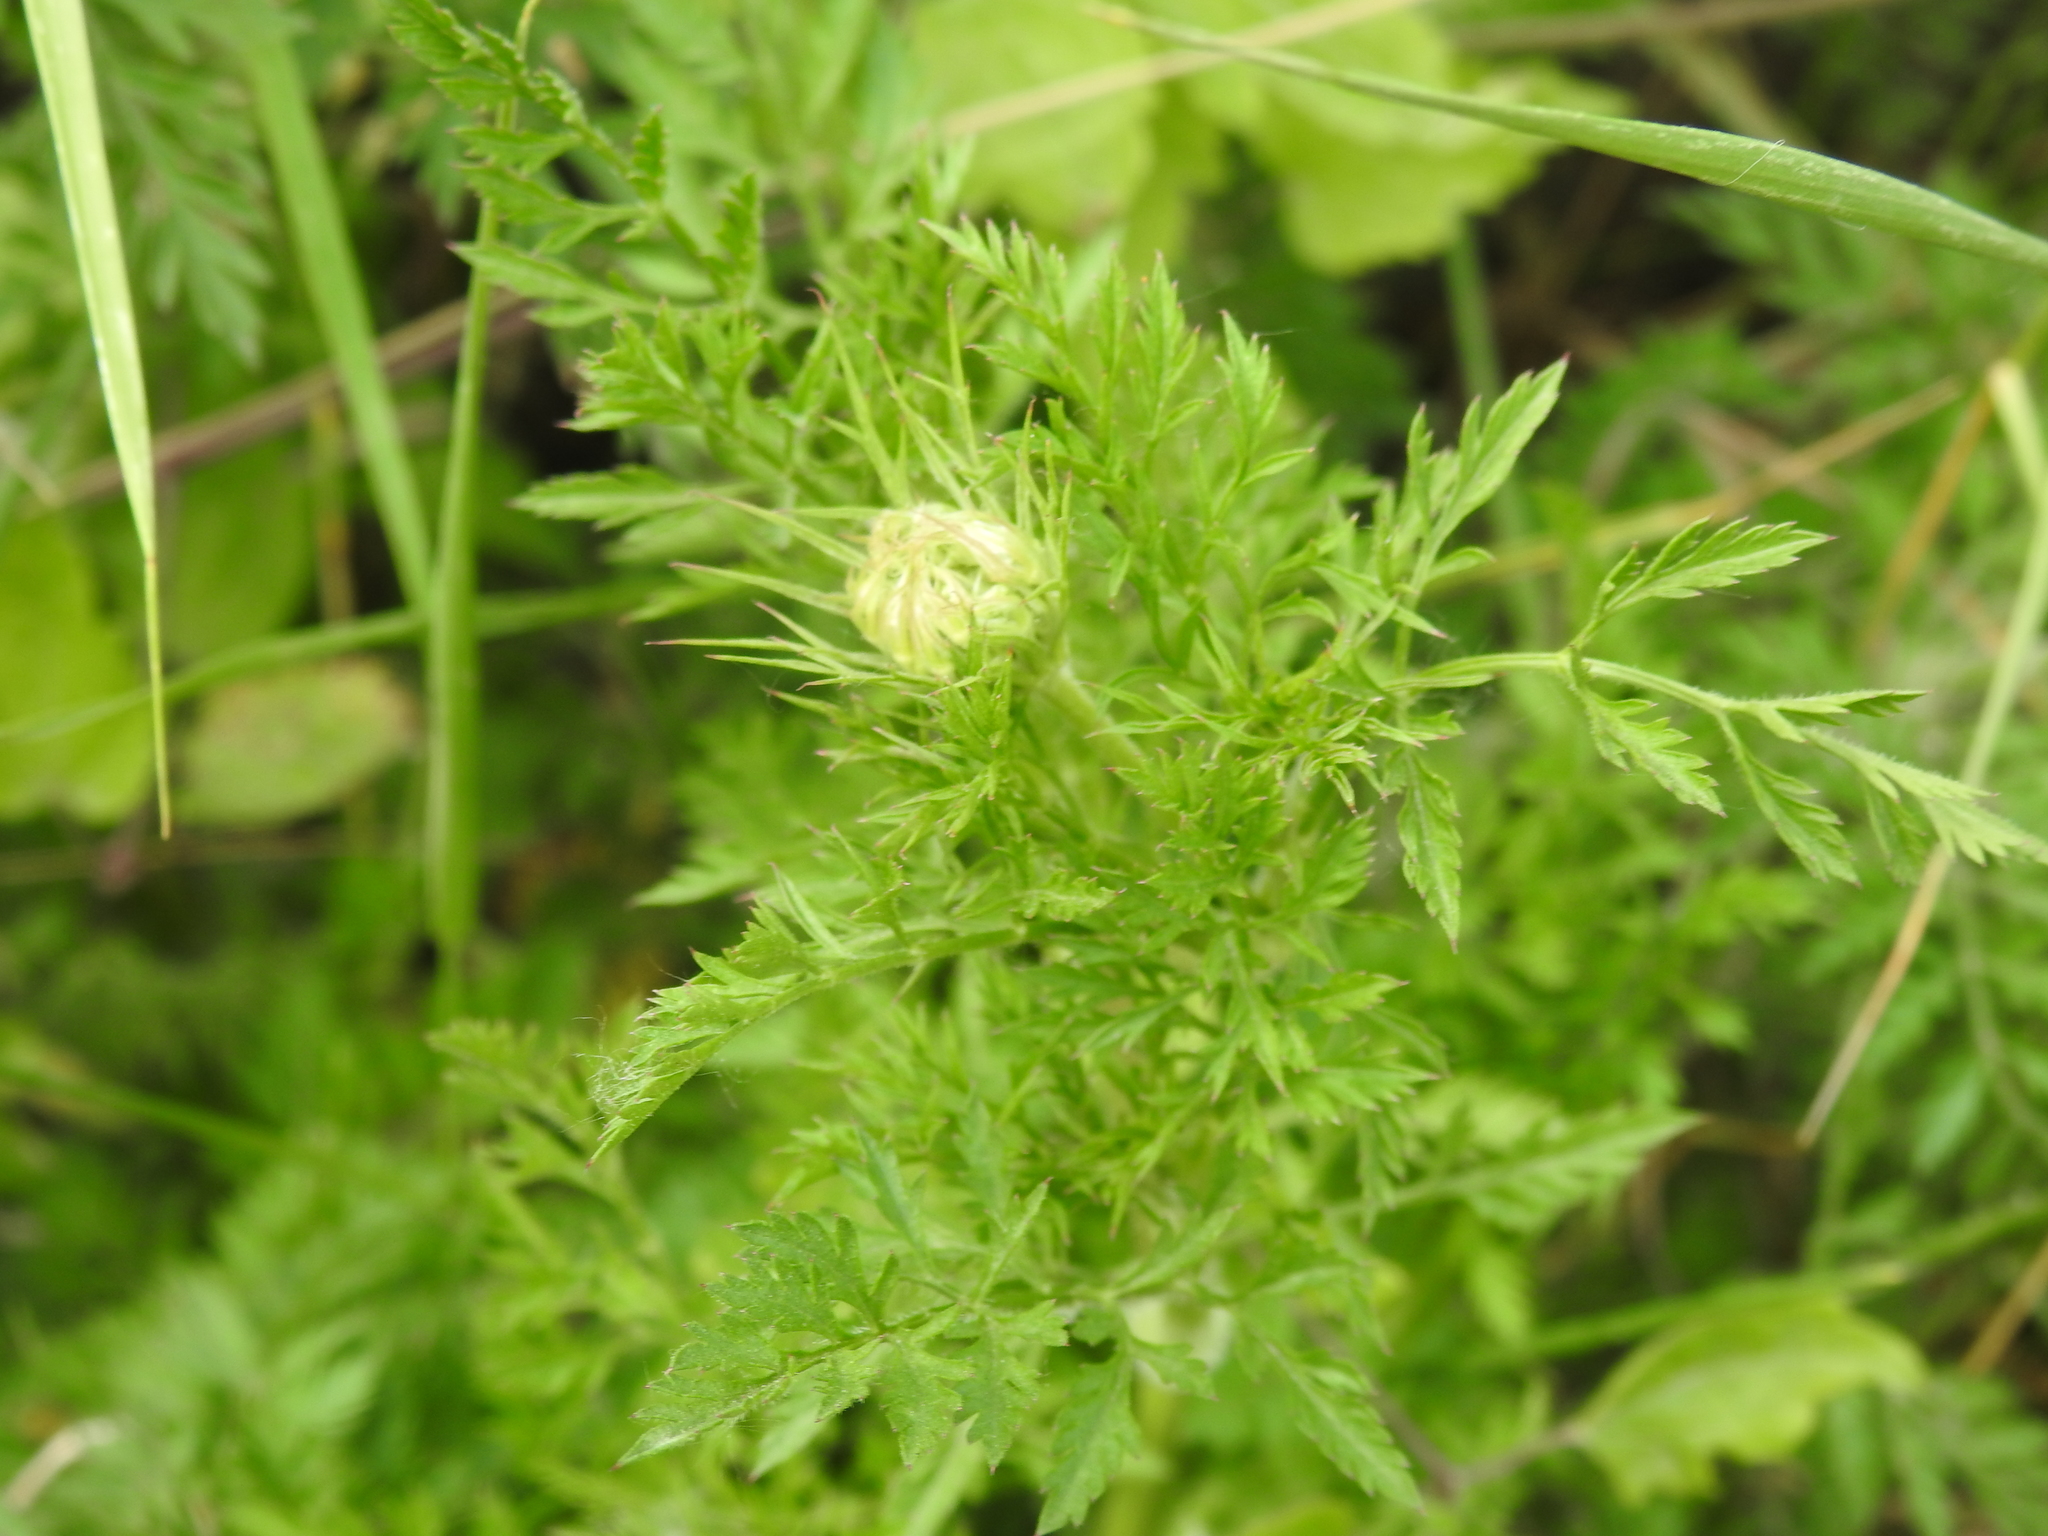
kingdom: Plantae
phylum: Tracheophyta
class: Magnoliopsida
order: Apiales
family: Apiaceae
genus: Daucus
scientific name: Daucus carota
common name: Wild carrot
